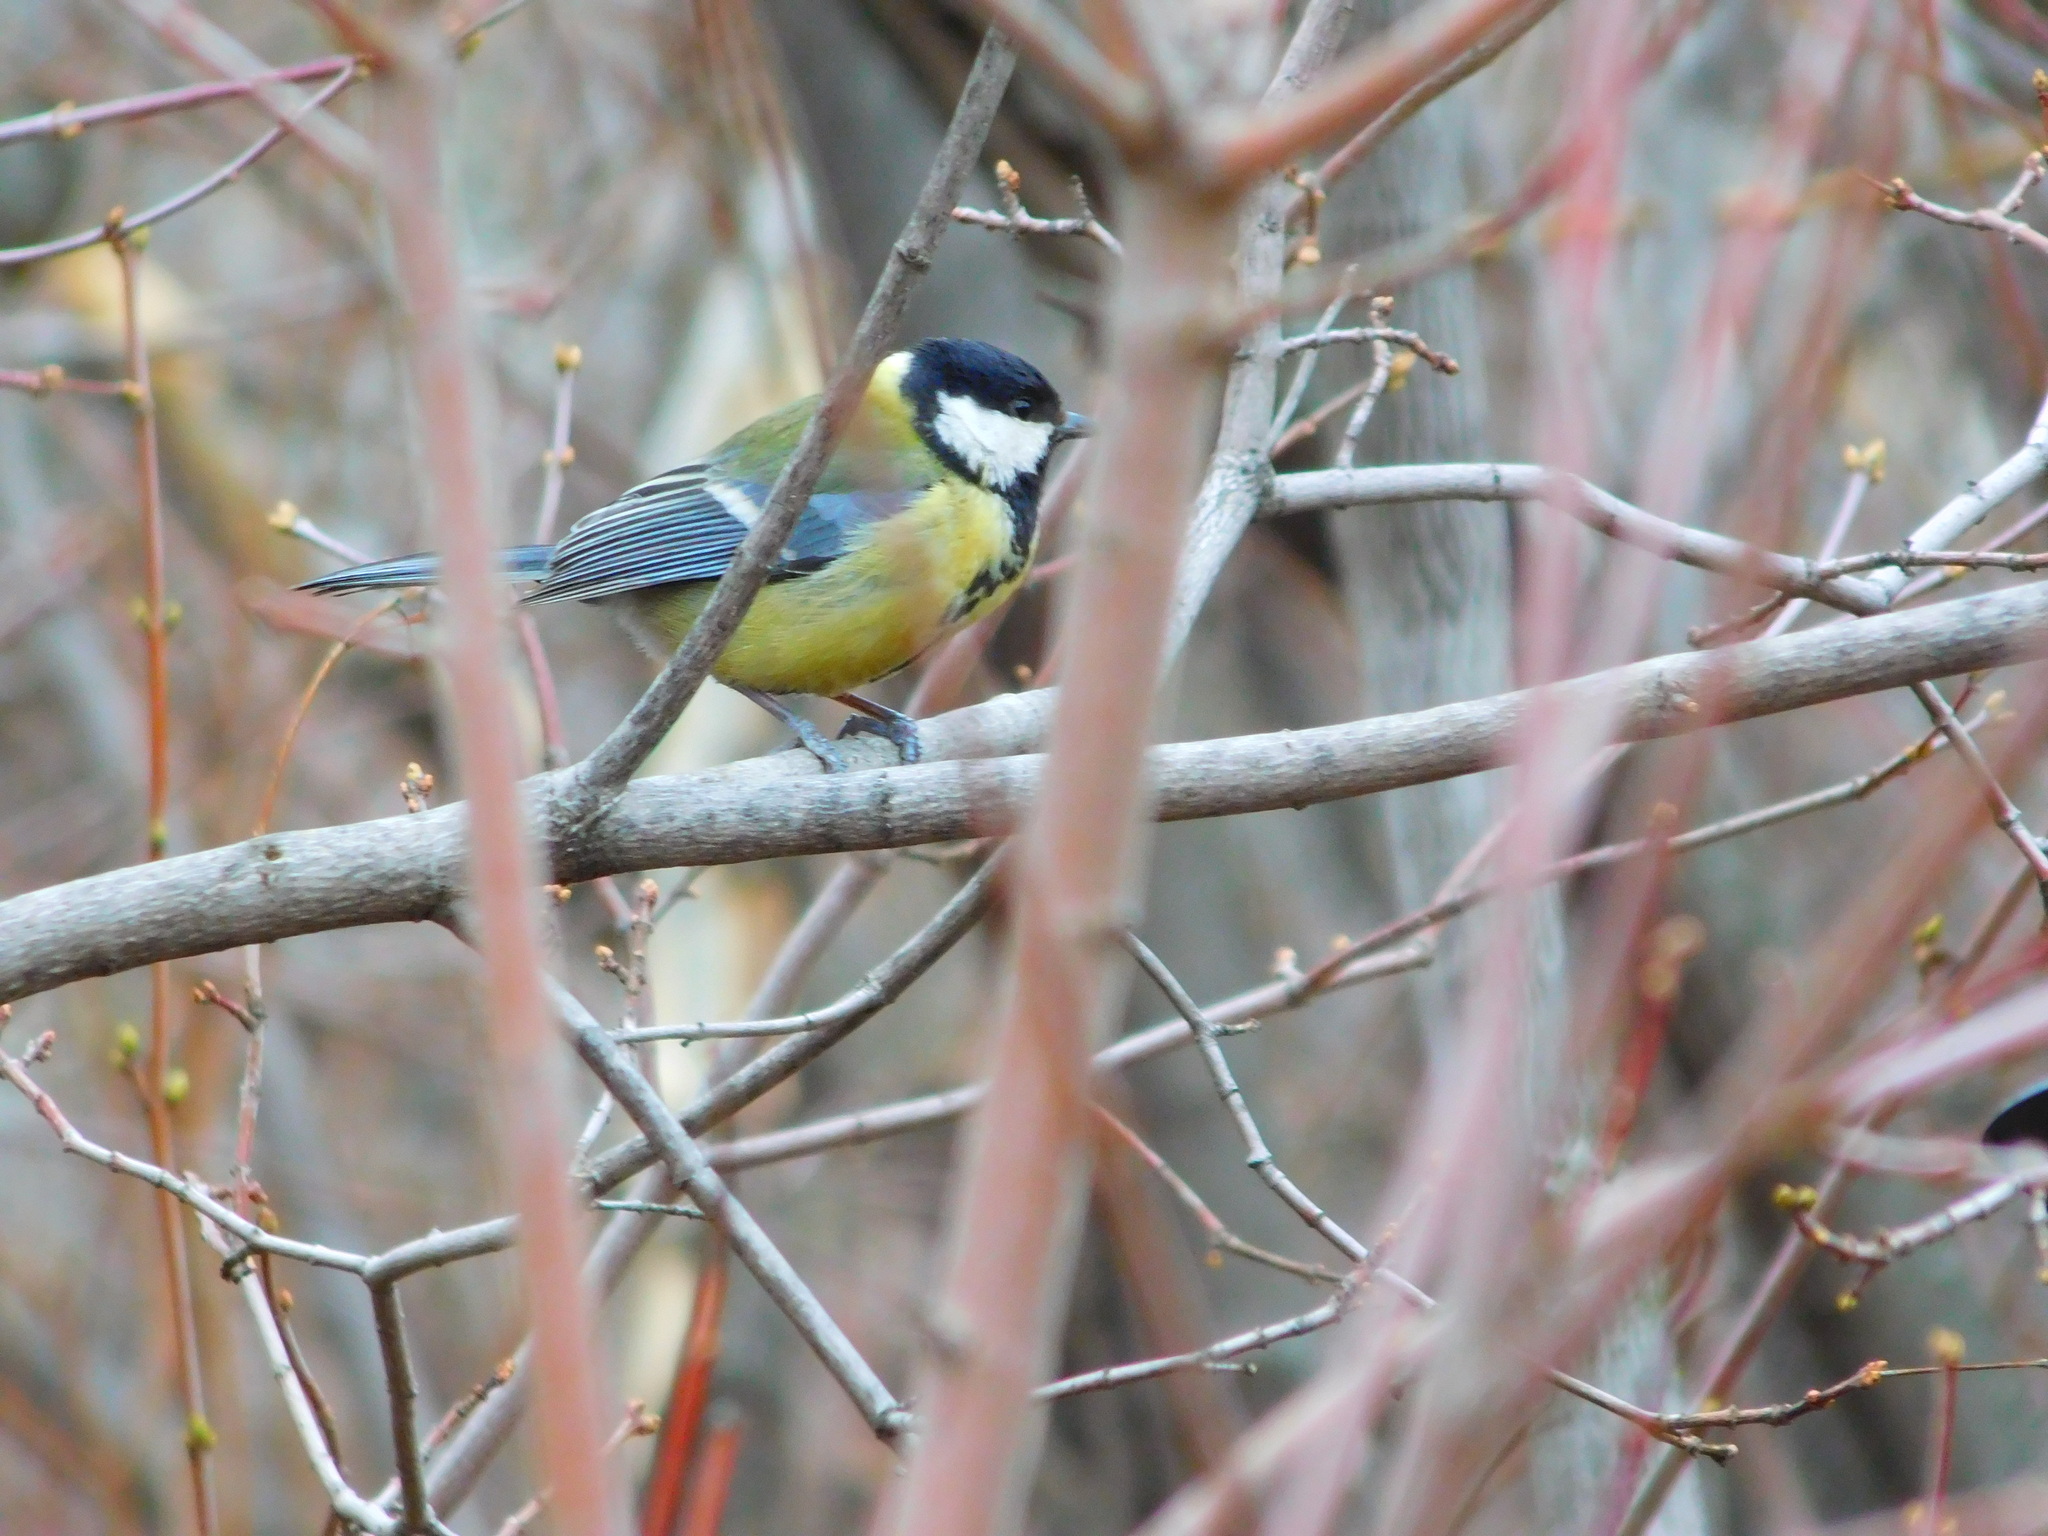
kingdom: Animalia
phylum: Chordata
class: Aves
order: Passeriformes
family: Paridae
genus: Parus
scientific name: Parus major
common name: Great tit
